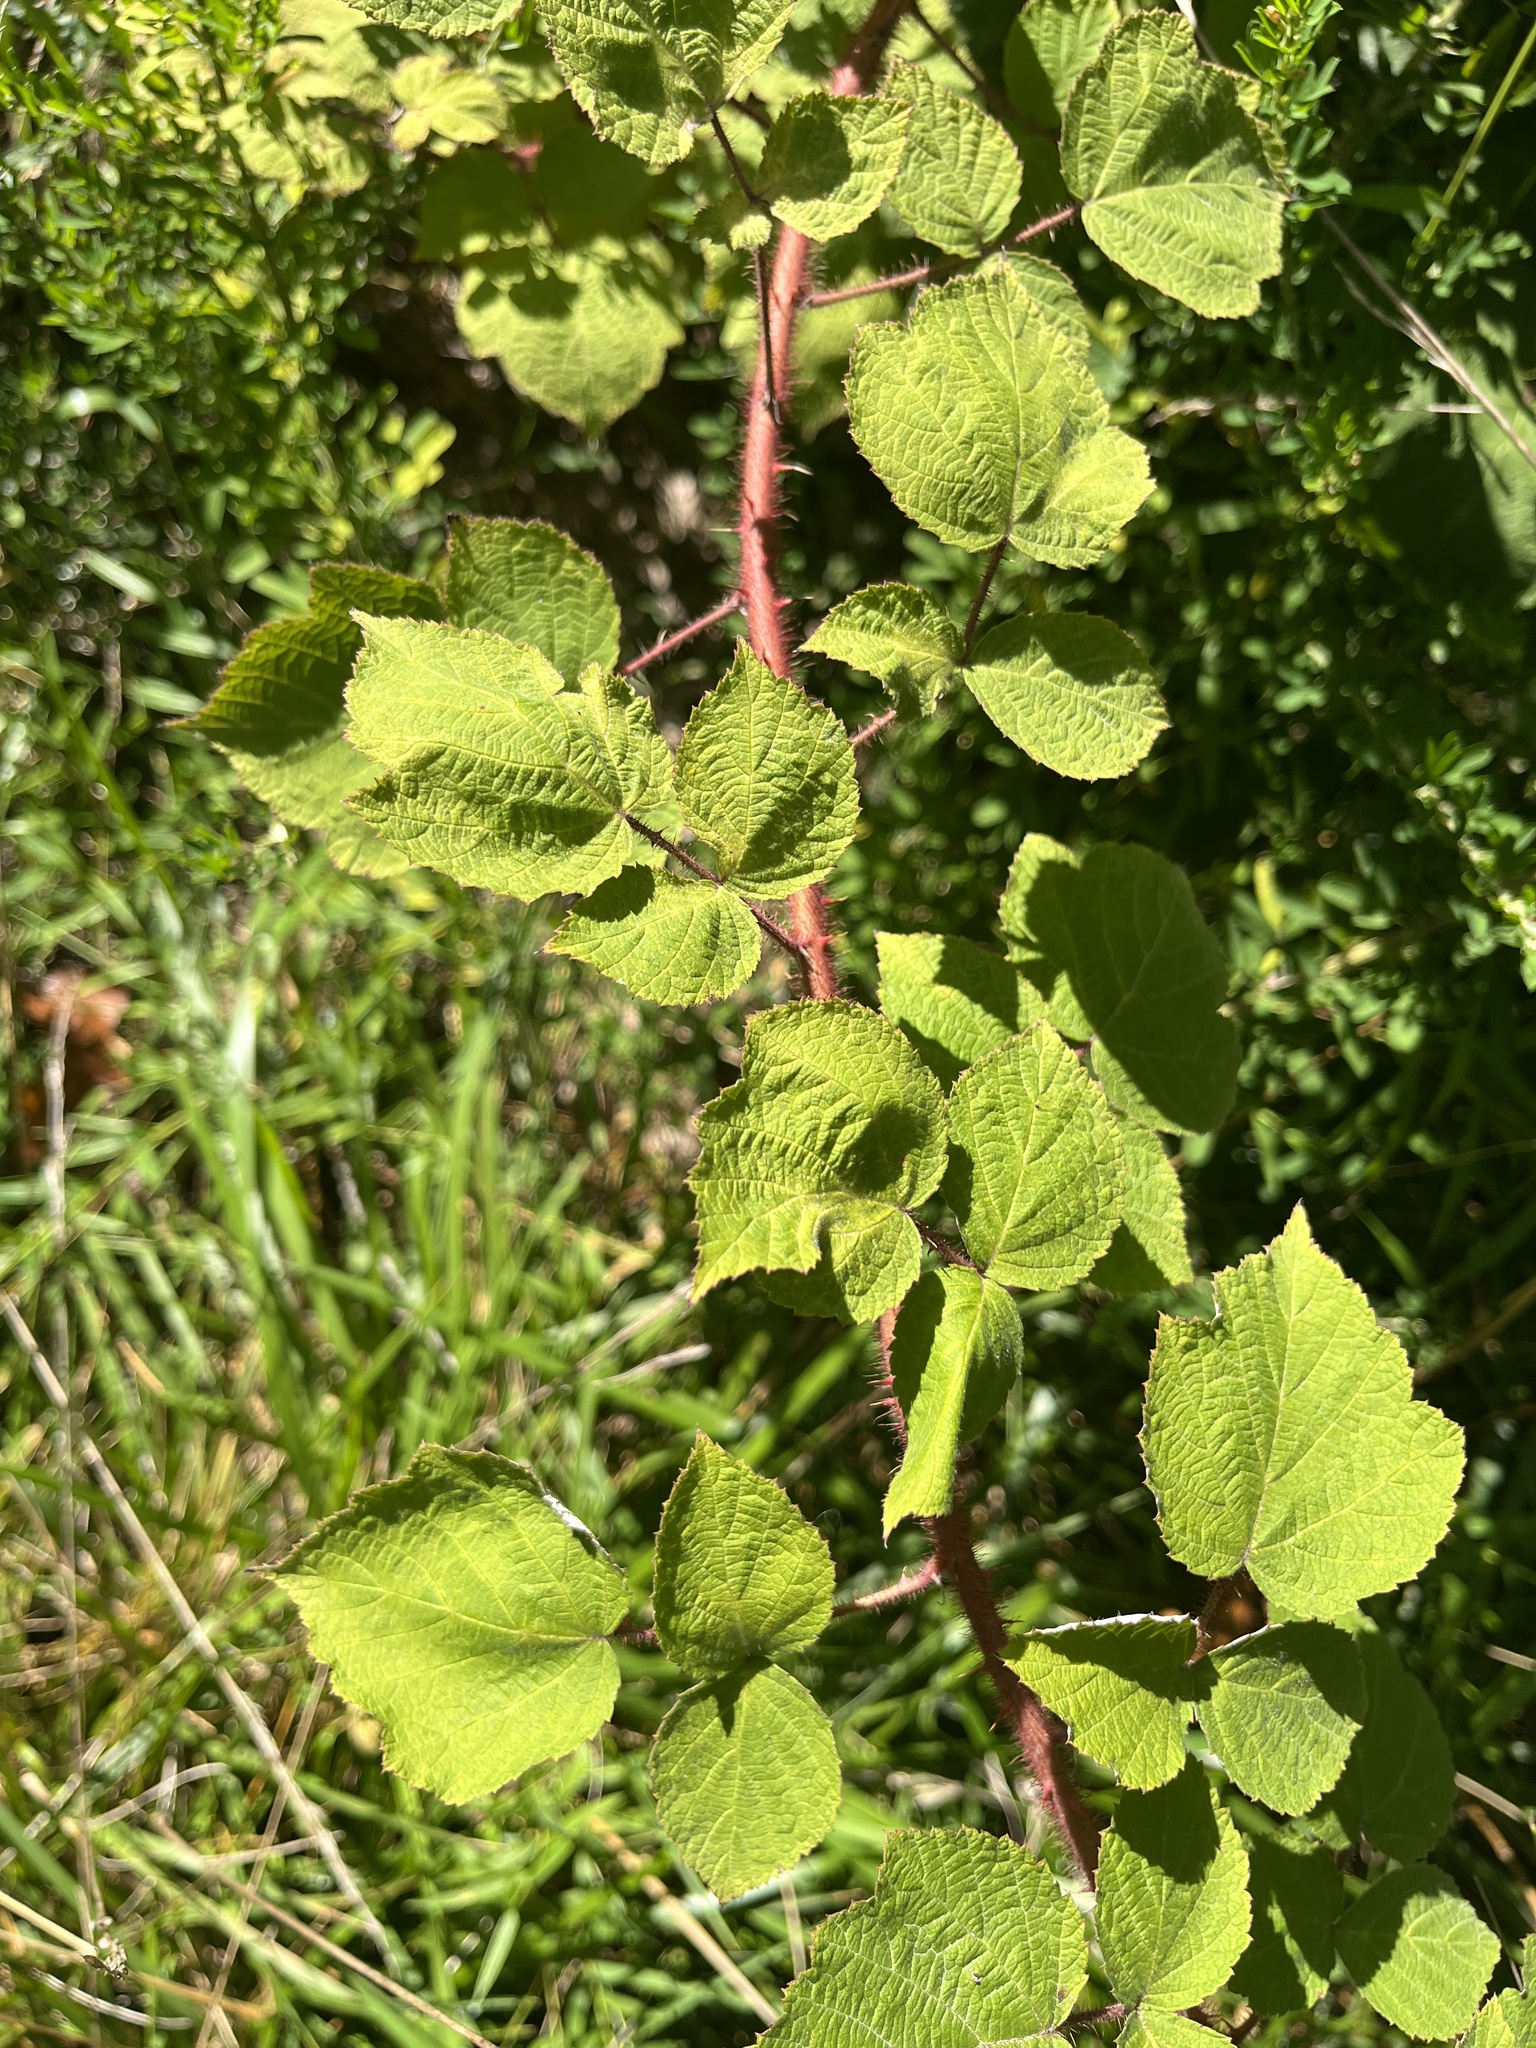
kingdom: Plantae
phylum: Tracheophyta
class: Magnoliopsida
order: Rosales
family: Rosaceae
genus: Rubus
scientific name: Rubus phoenicolasius
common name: Japanese wineberry
